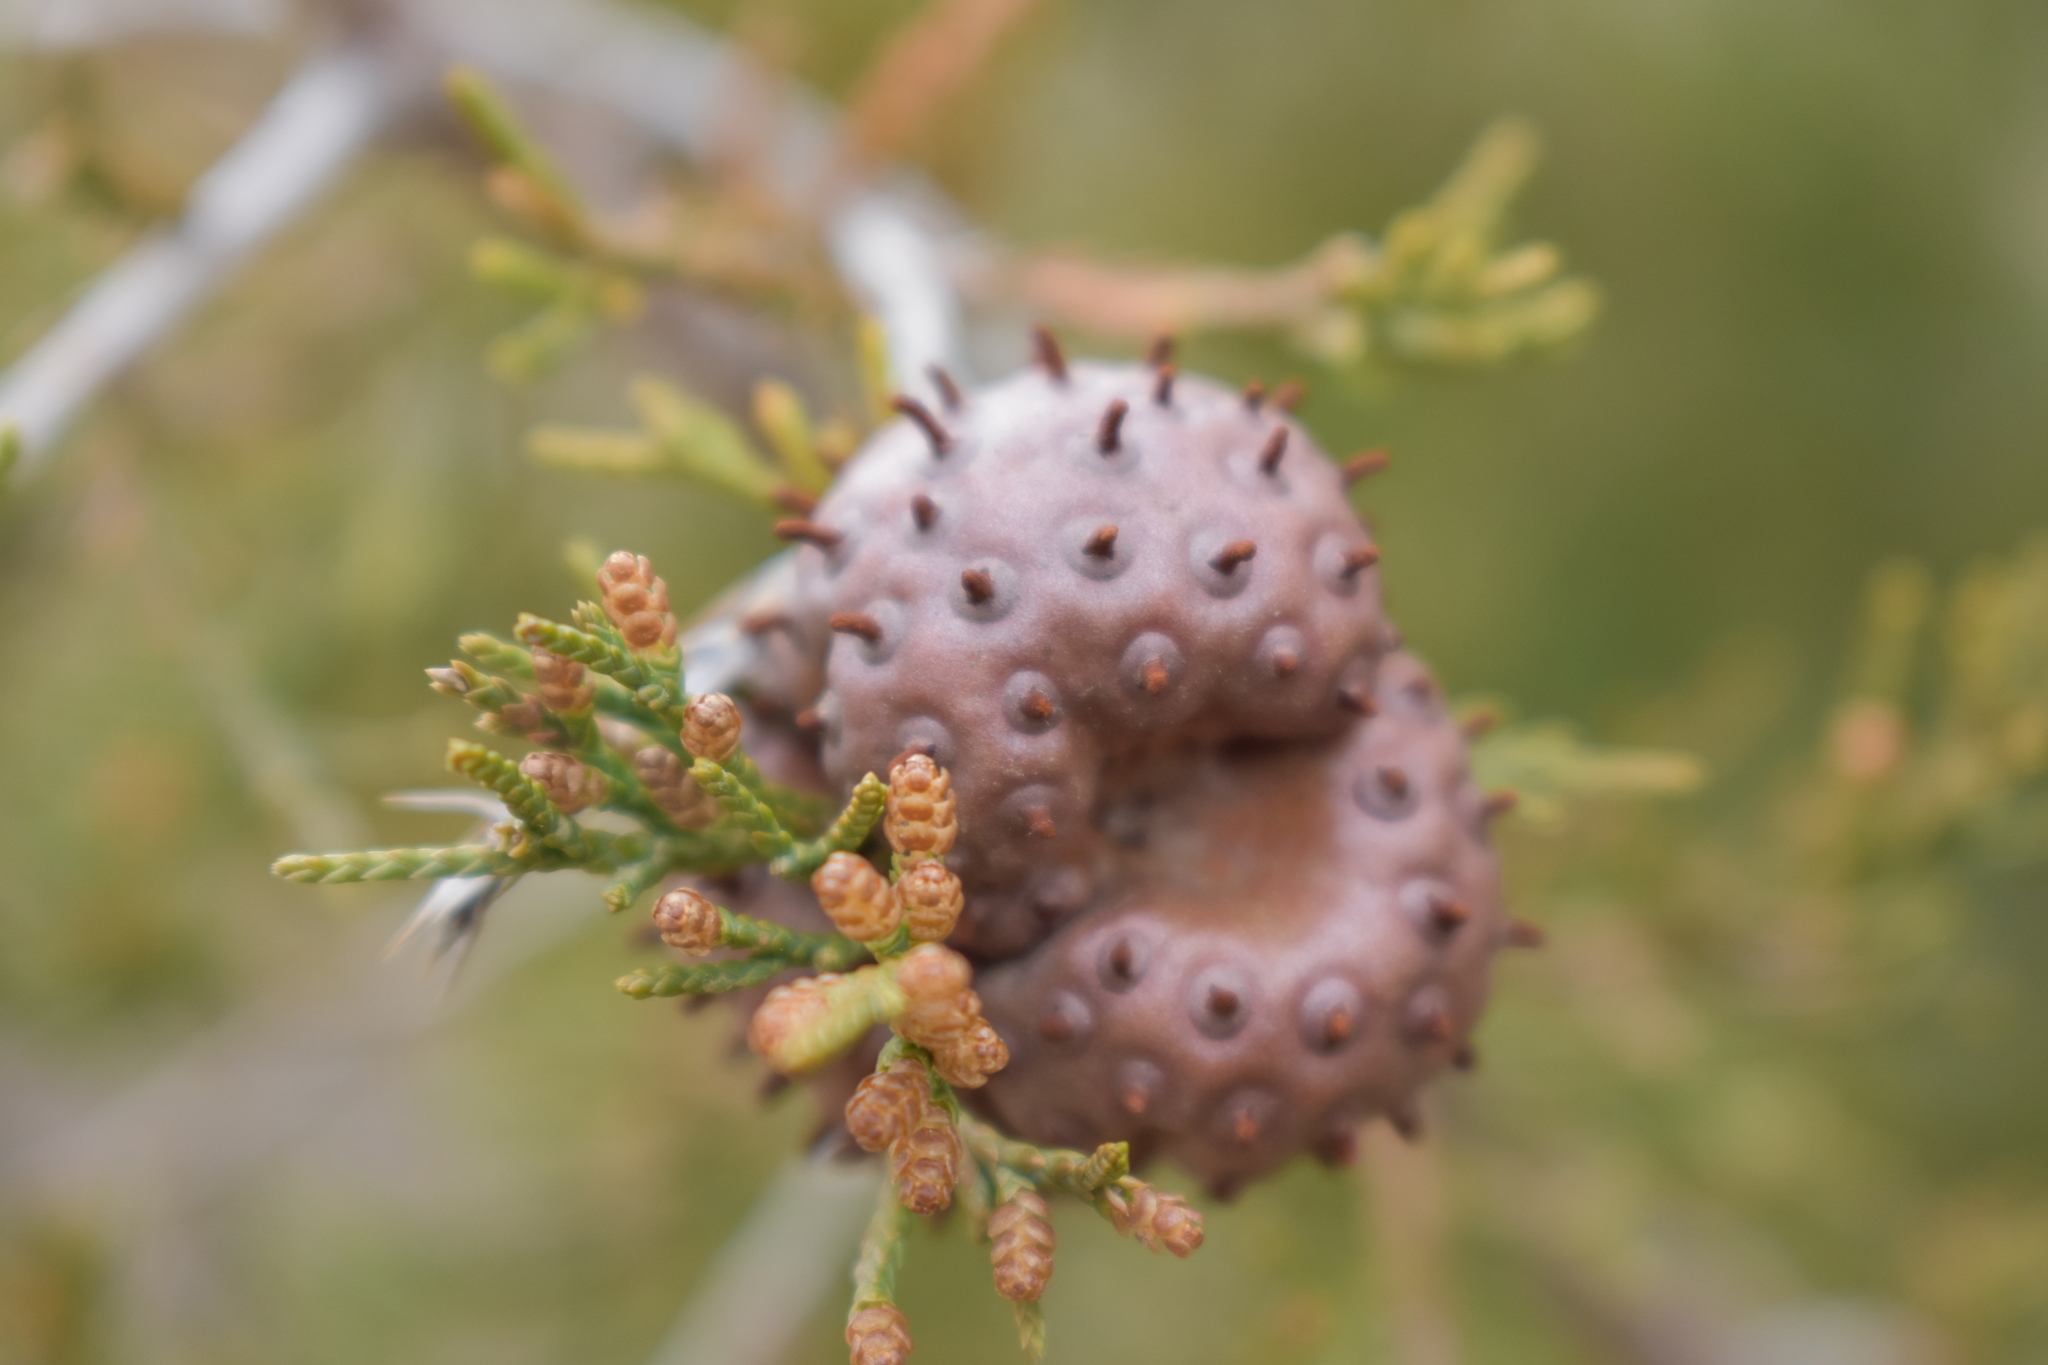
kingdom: Fungi
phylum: Basidiomycota
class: Pucciniomycetes
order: Pucciniales
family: Gymnosporangiaceae
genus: Gymnosporangium
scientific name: Gymnosporangium juniperi-virginianae
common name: Juniper-apple rust
